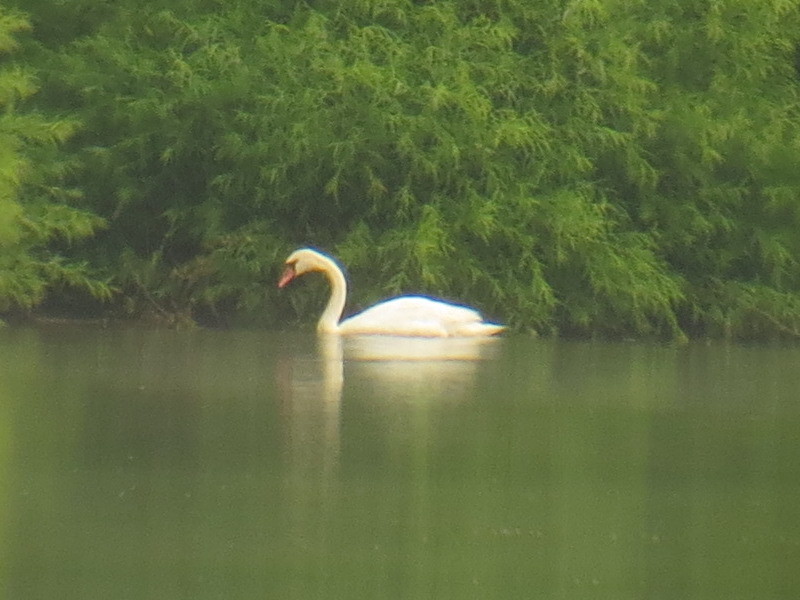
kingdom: Animalia
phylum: Chordata
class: Aves
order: Anseriformes
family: Anatidae
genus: Cygnus
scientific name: Cygnus olor
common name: Mute swan
